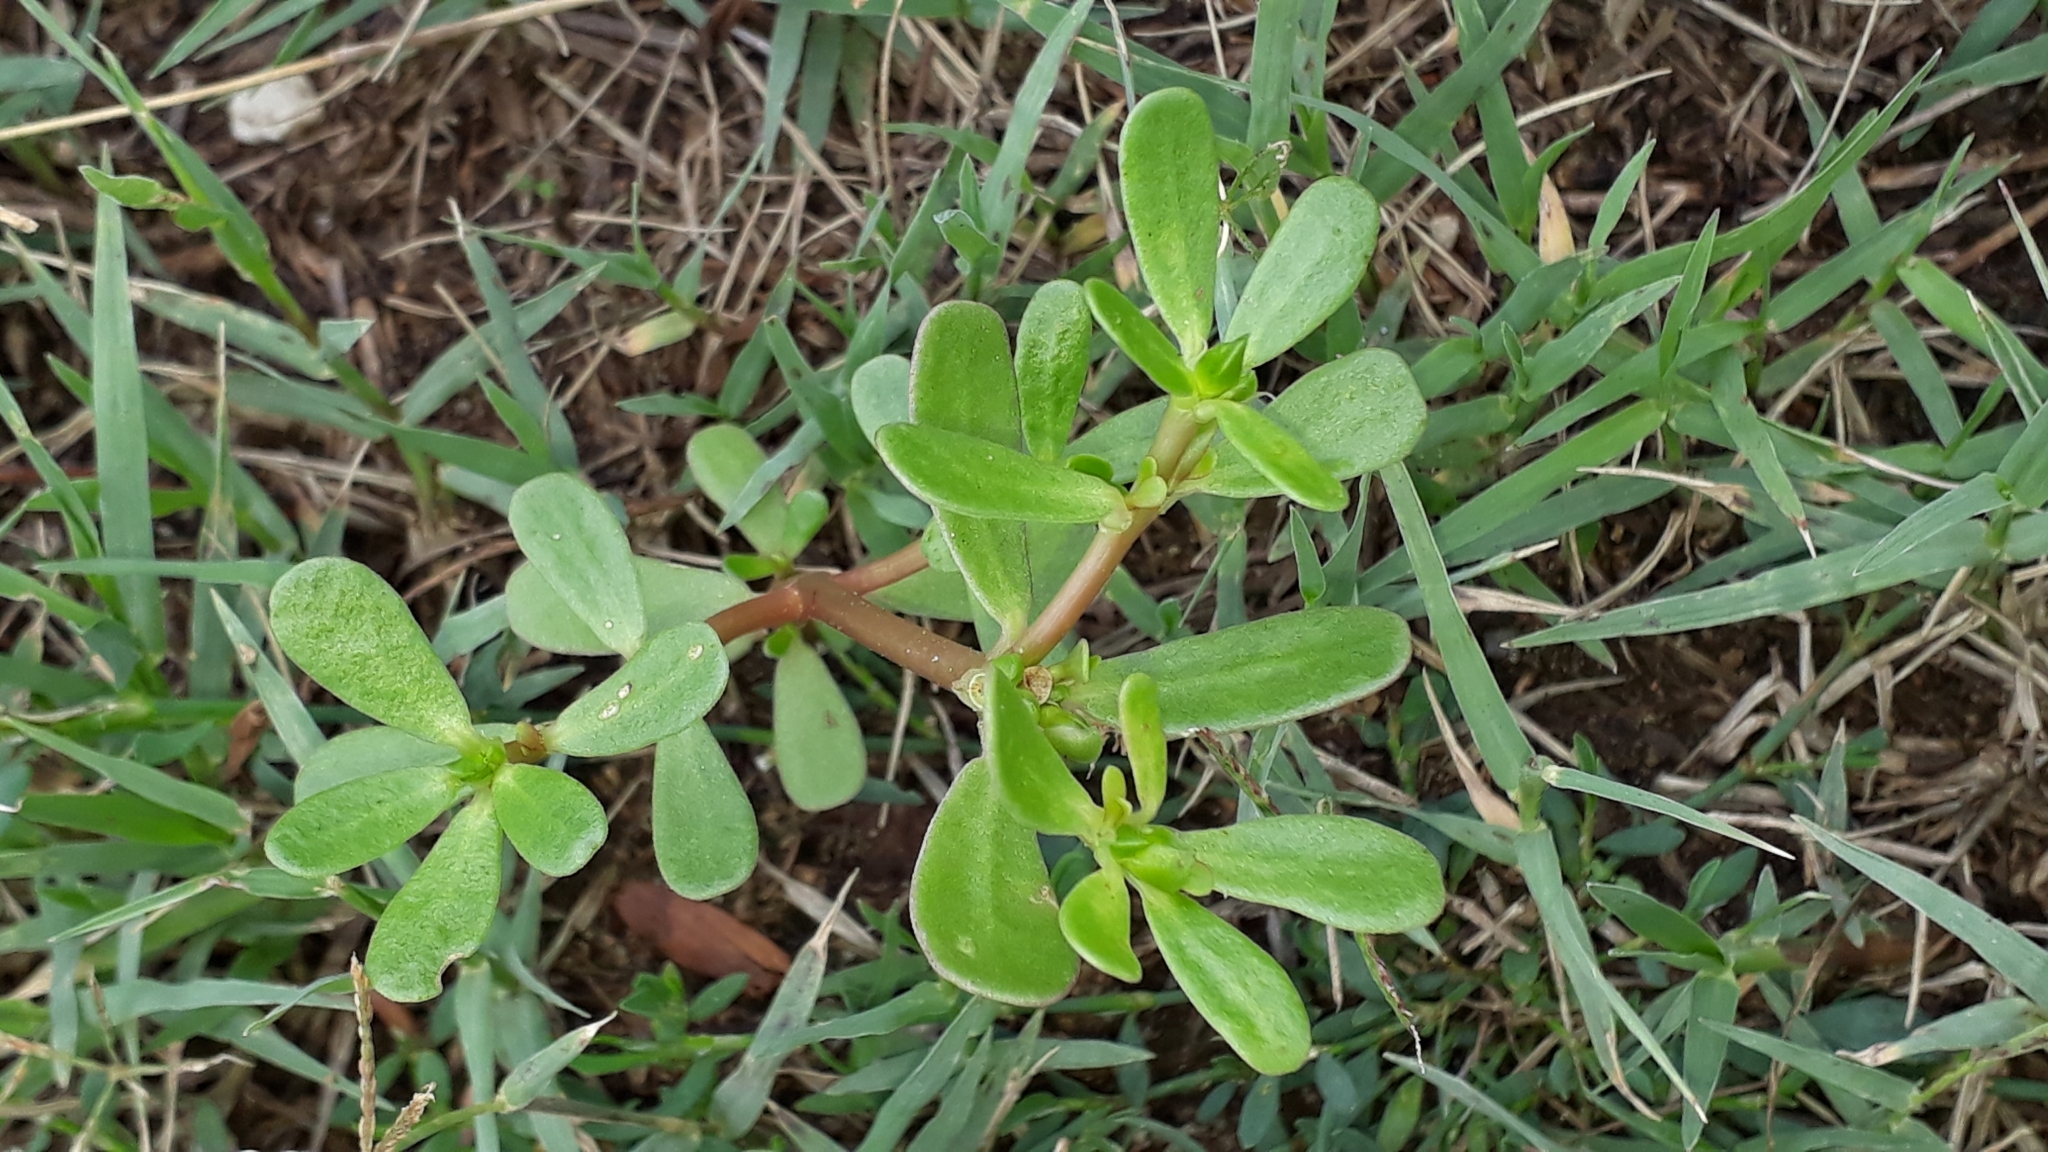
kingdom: Plantae
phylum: Tracheophyta
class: Magnoliopsida
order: Caryophyllales
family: Portulacaceae
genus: Portulaca
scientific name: Portulaca oleracea
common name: Common purslane
